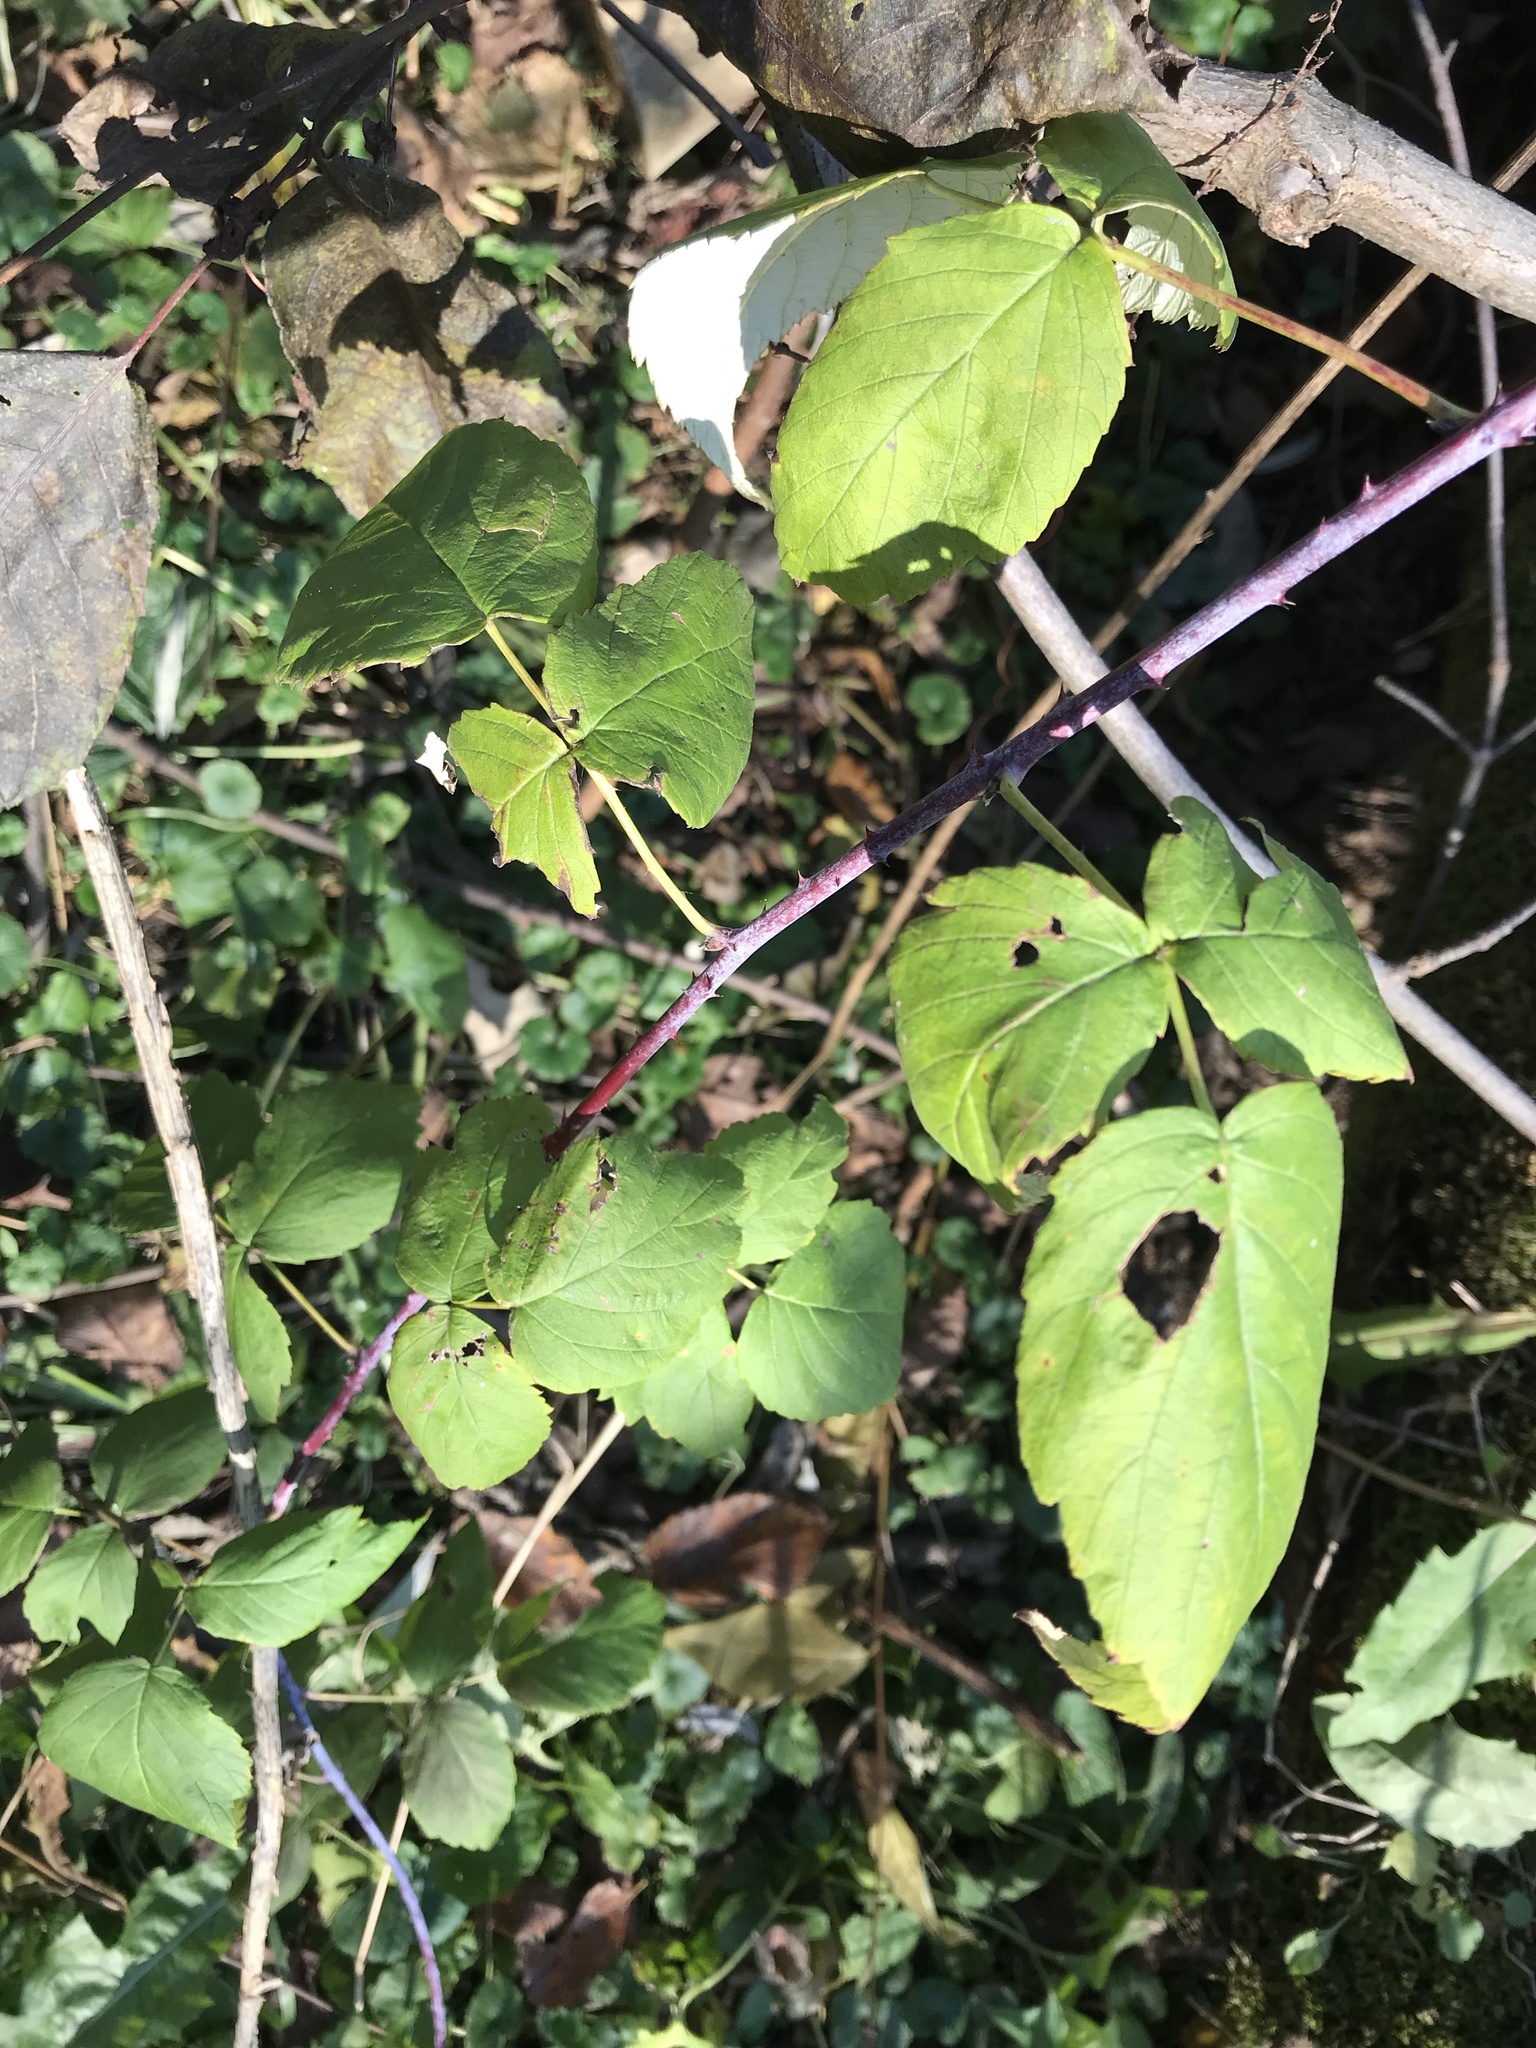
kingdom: Plantae
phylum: Tracheophyta
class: Magnoliopsida
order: Rosales
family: Rosaceae
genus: Rubus
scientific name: Rubus occidentalis
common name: Black raspberry
